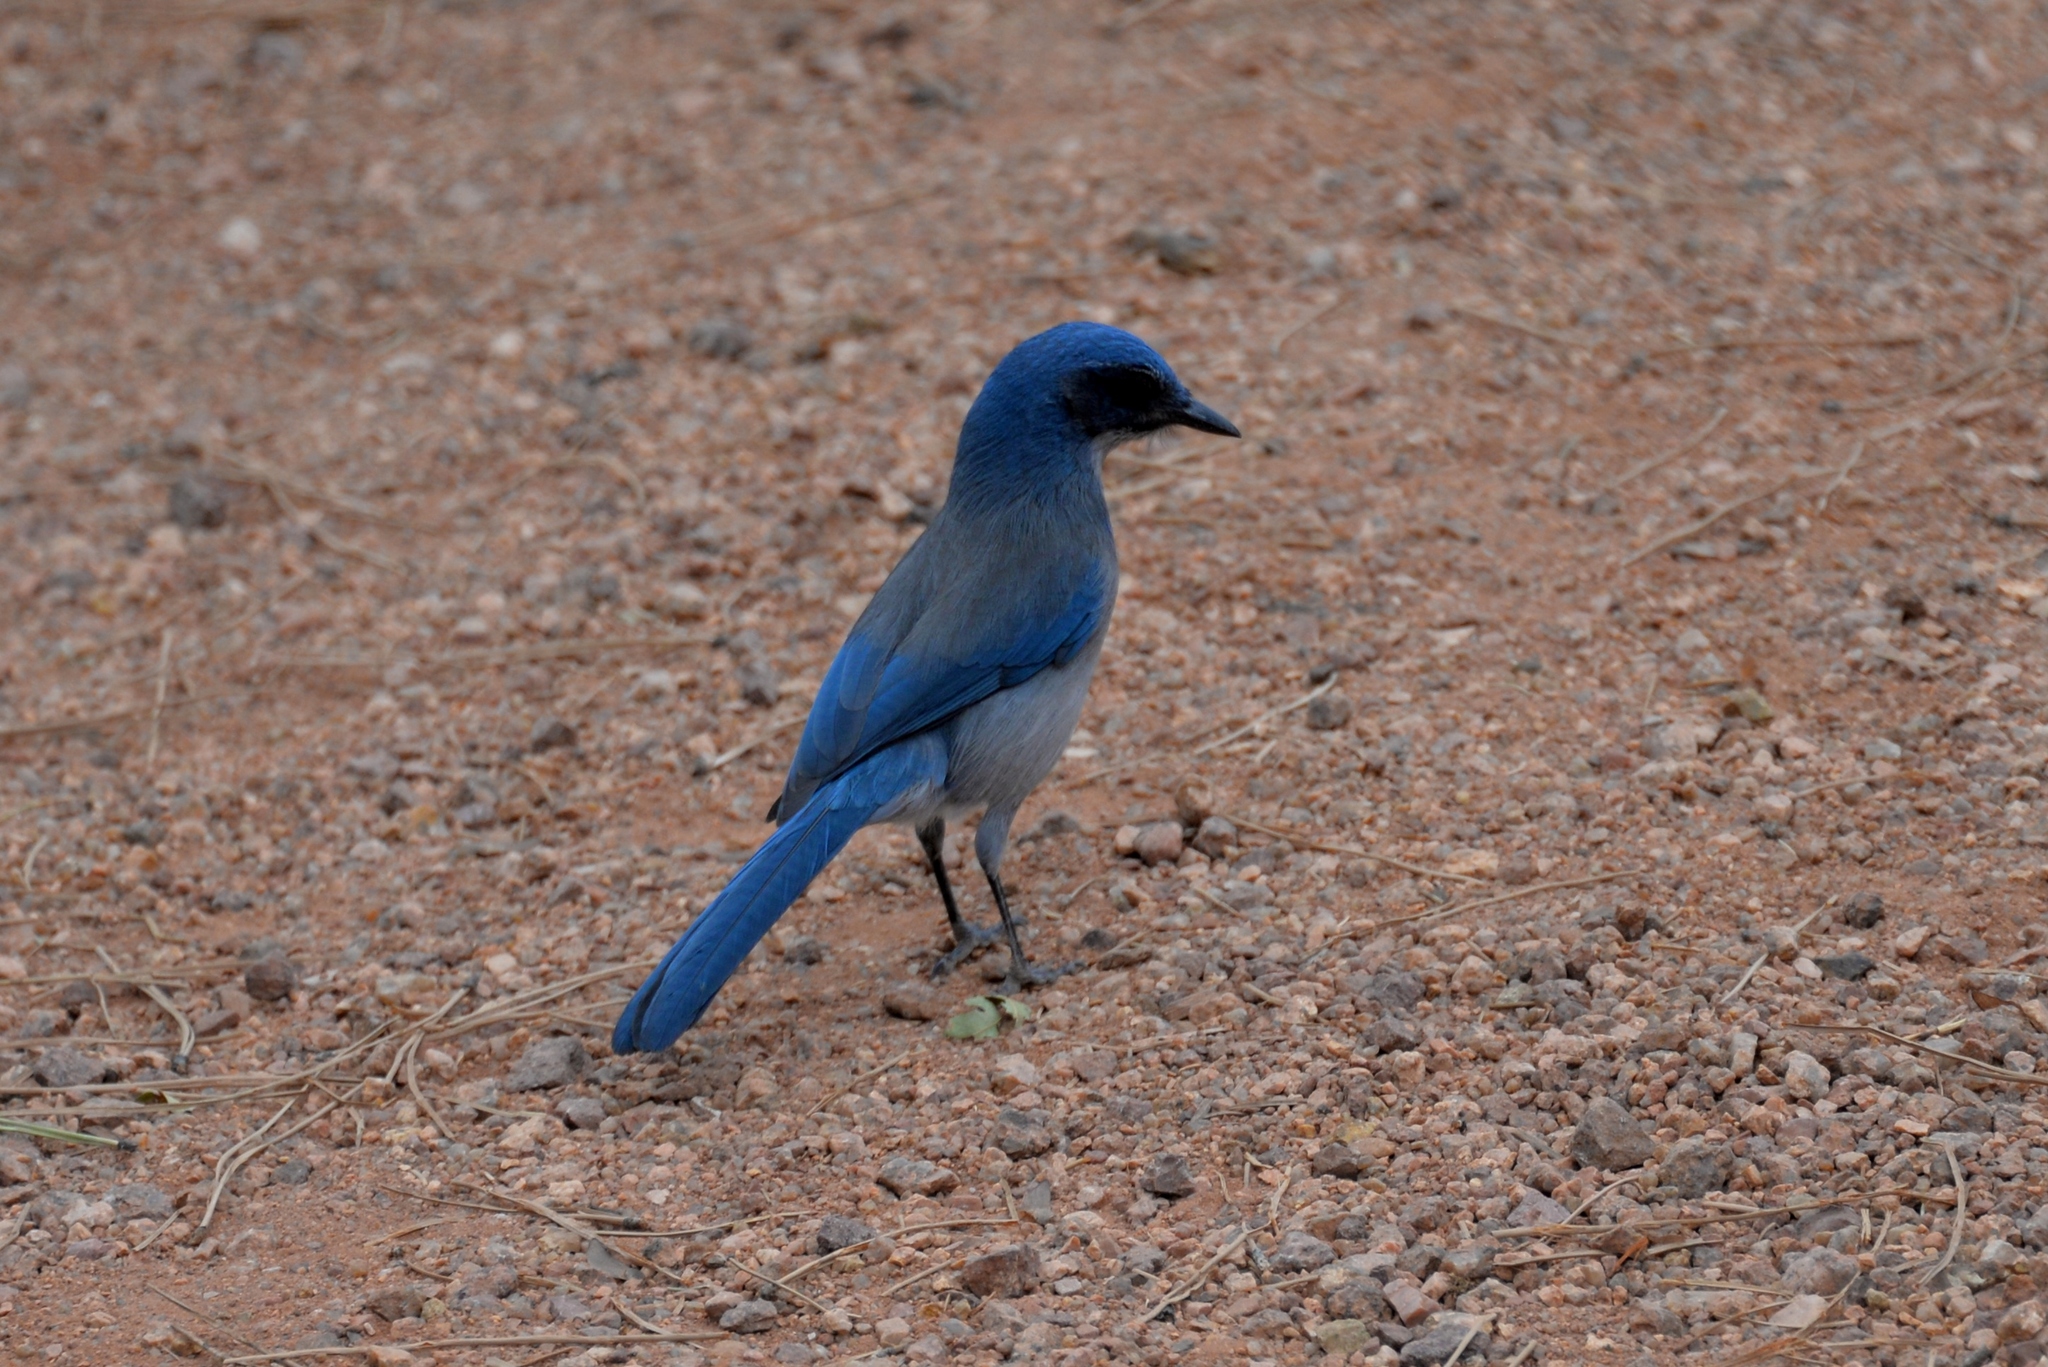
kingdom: Animalia
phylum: Chordata
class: Aves
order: Passeriformes
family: Corvidae
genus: Aphelocoma
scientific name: Aphelocoma woodhouseii
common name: Woodhouse's scrub-jay
